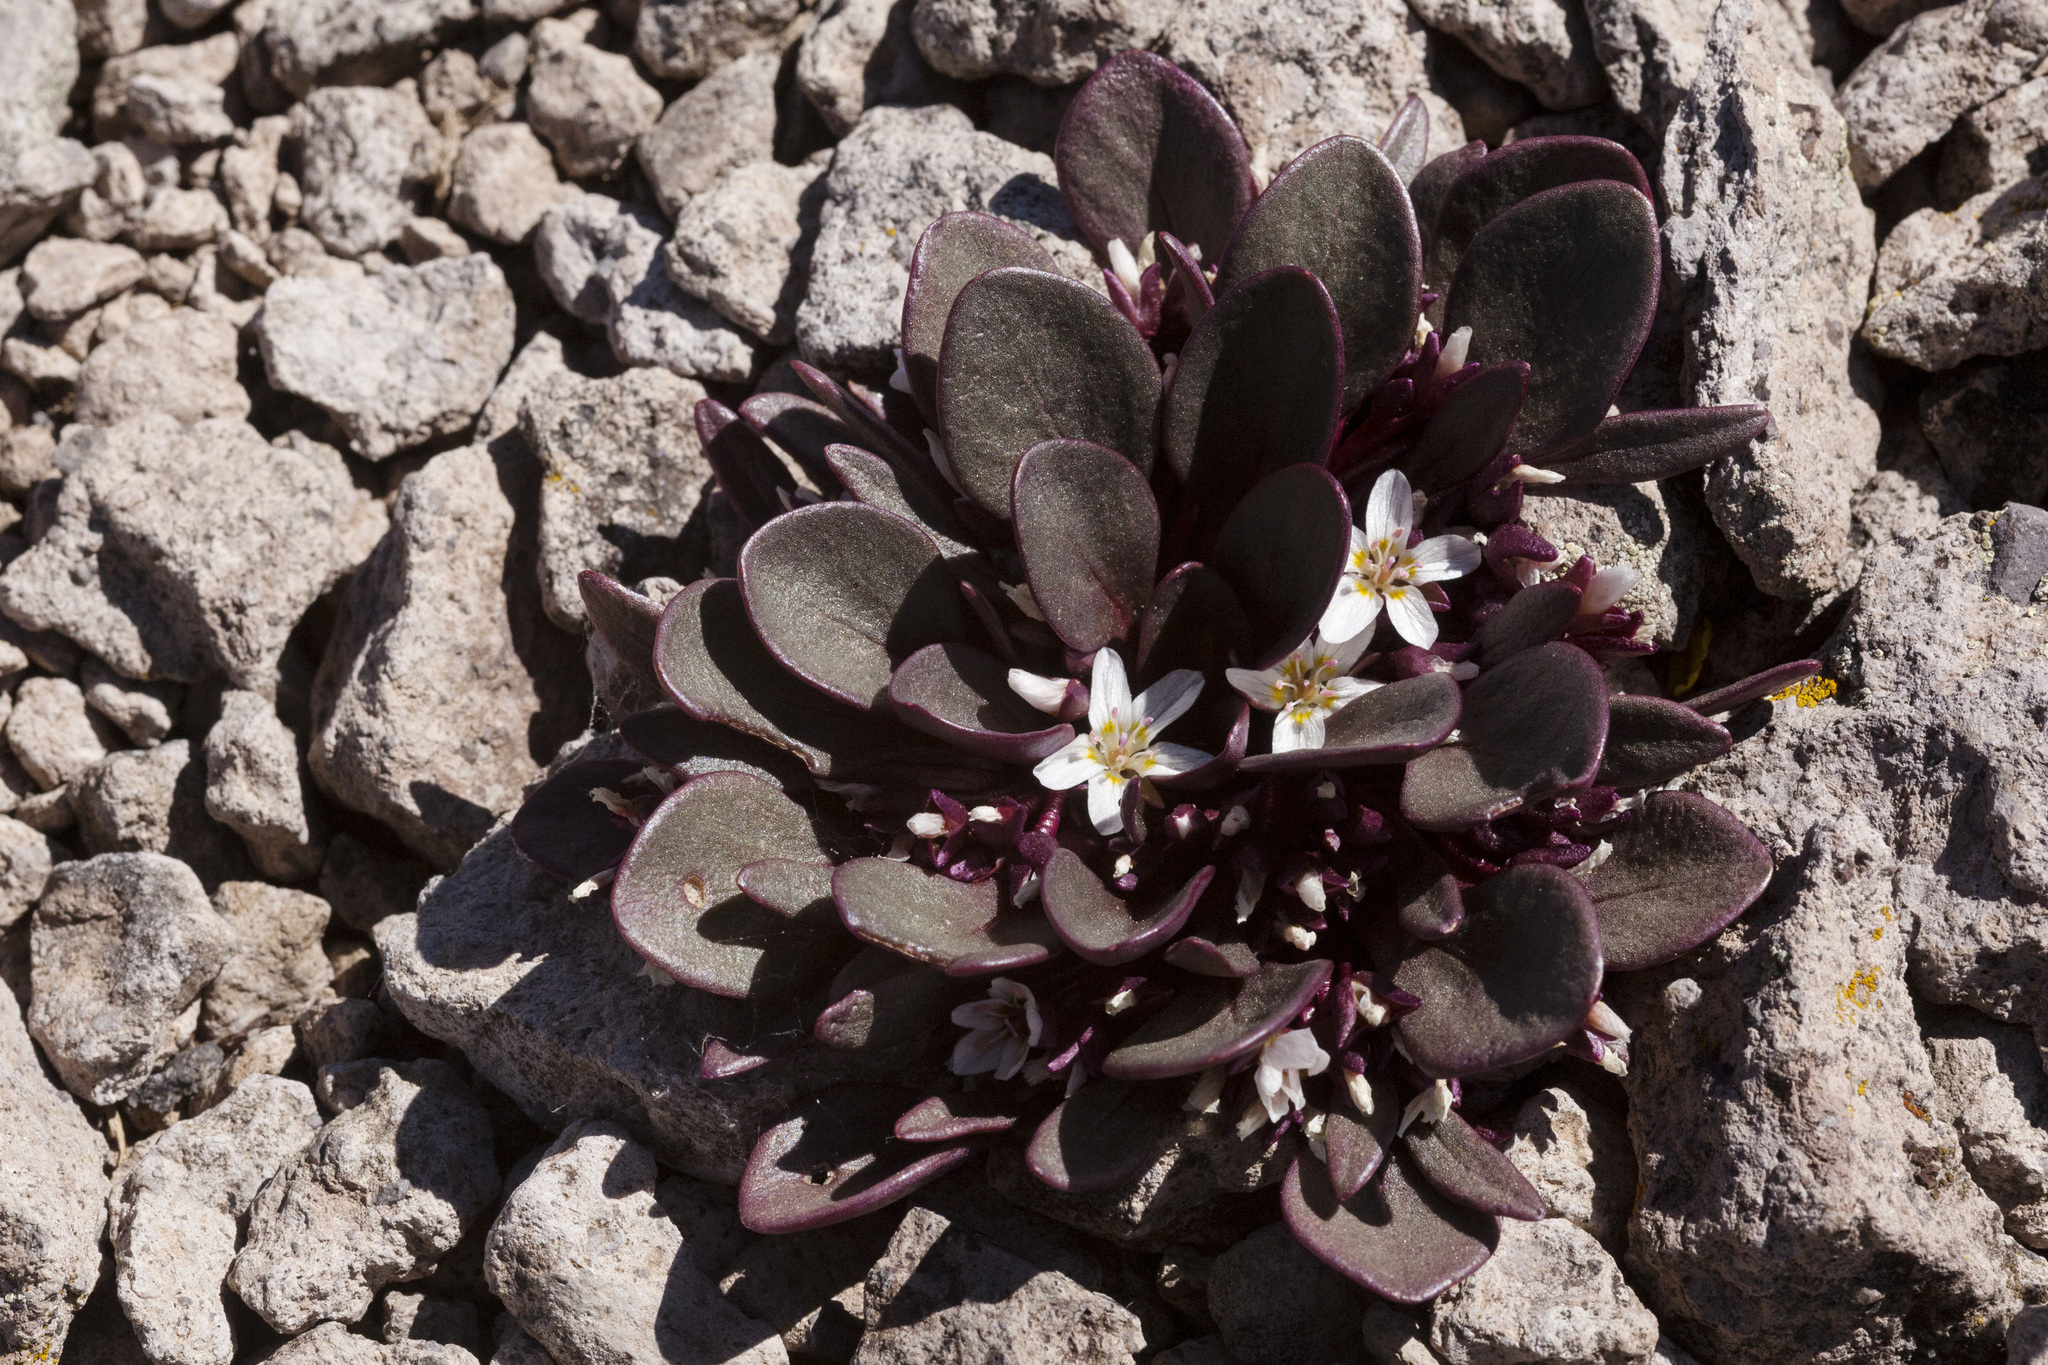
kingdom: Plantae
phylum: Tracheophyta
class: Magnoliopsida
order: Caryophyllales
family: Montiaceae
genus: Claytonia
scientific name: Claytonia megarhiza
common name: Alpine spring beauty
